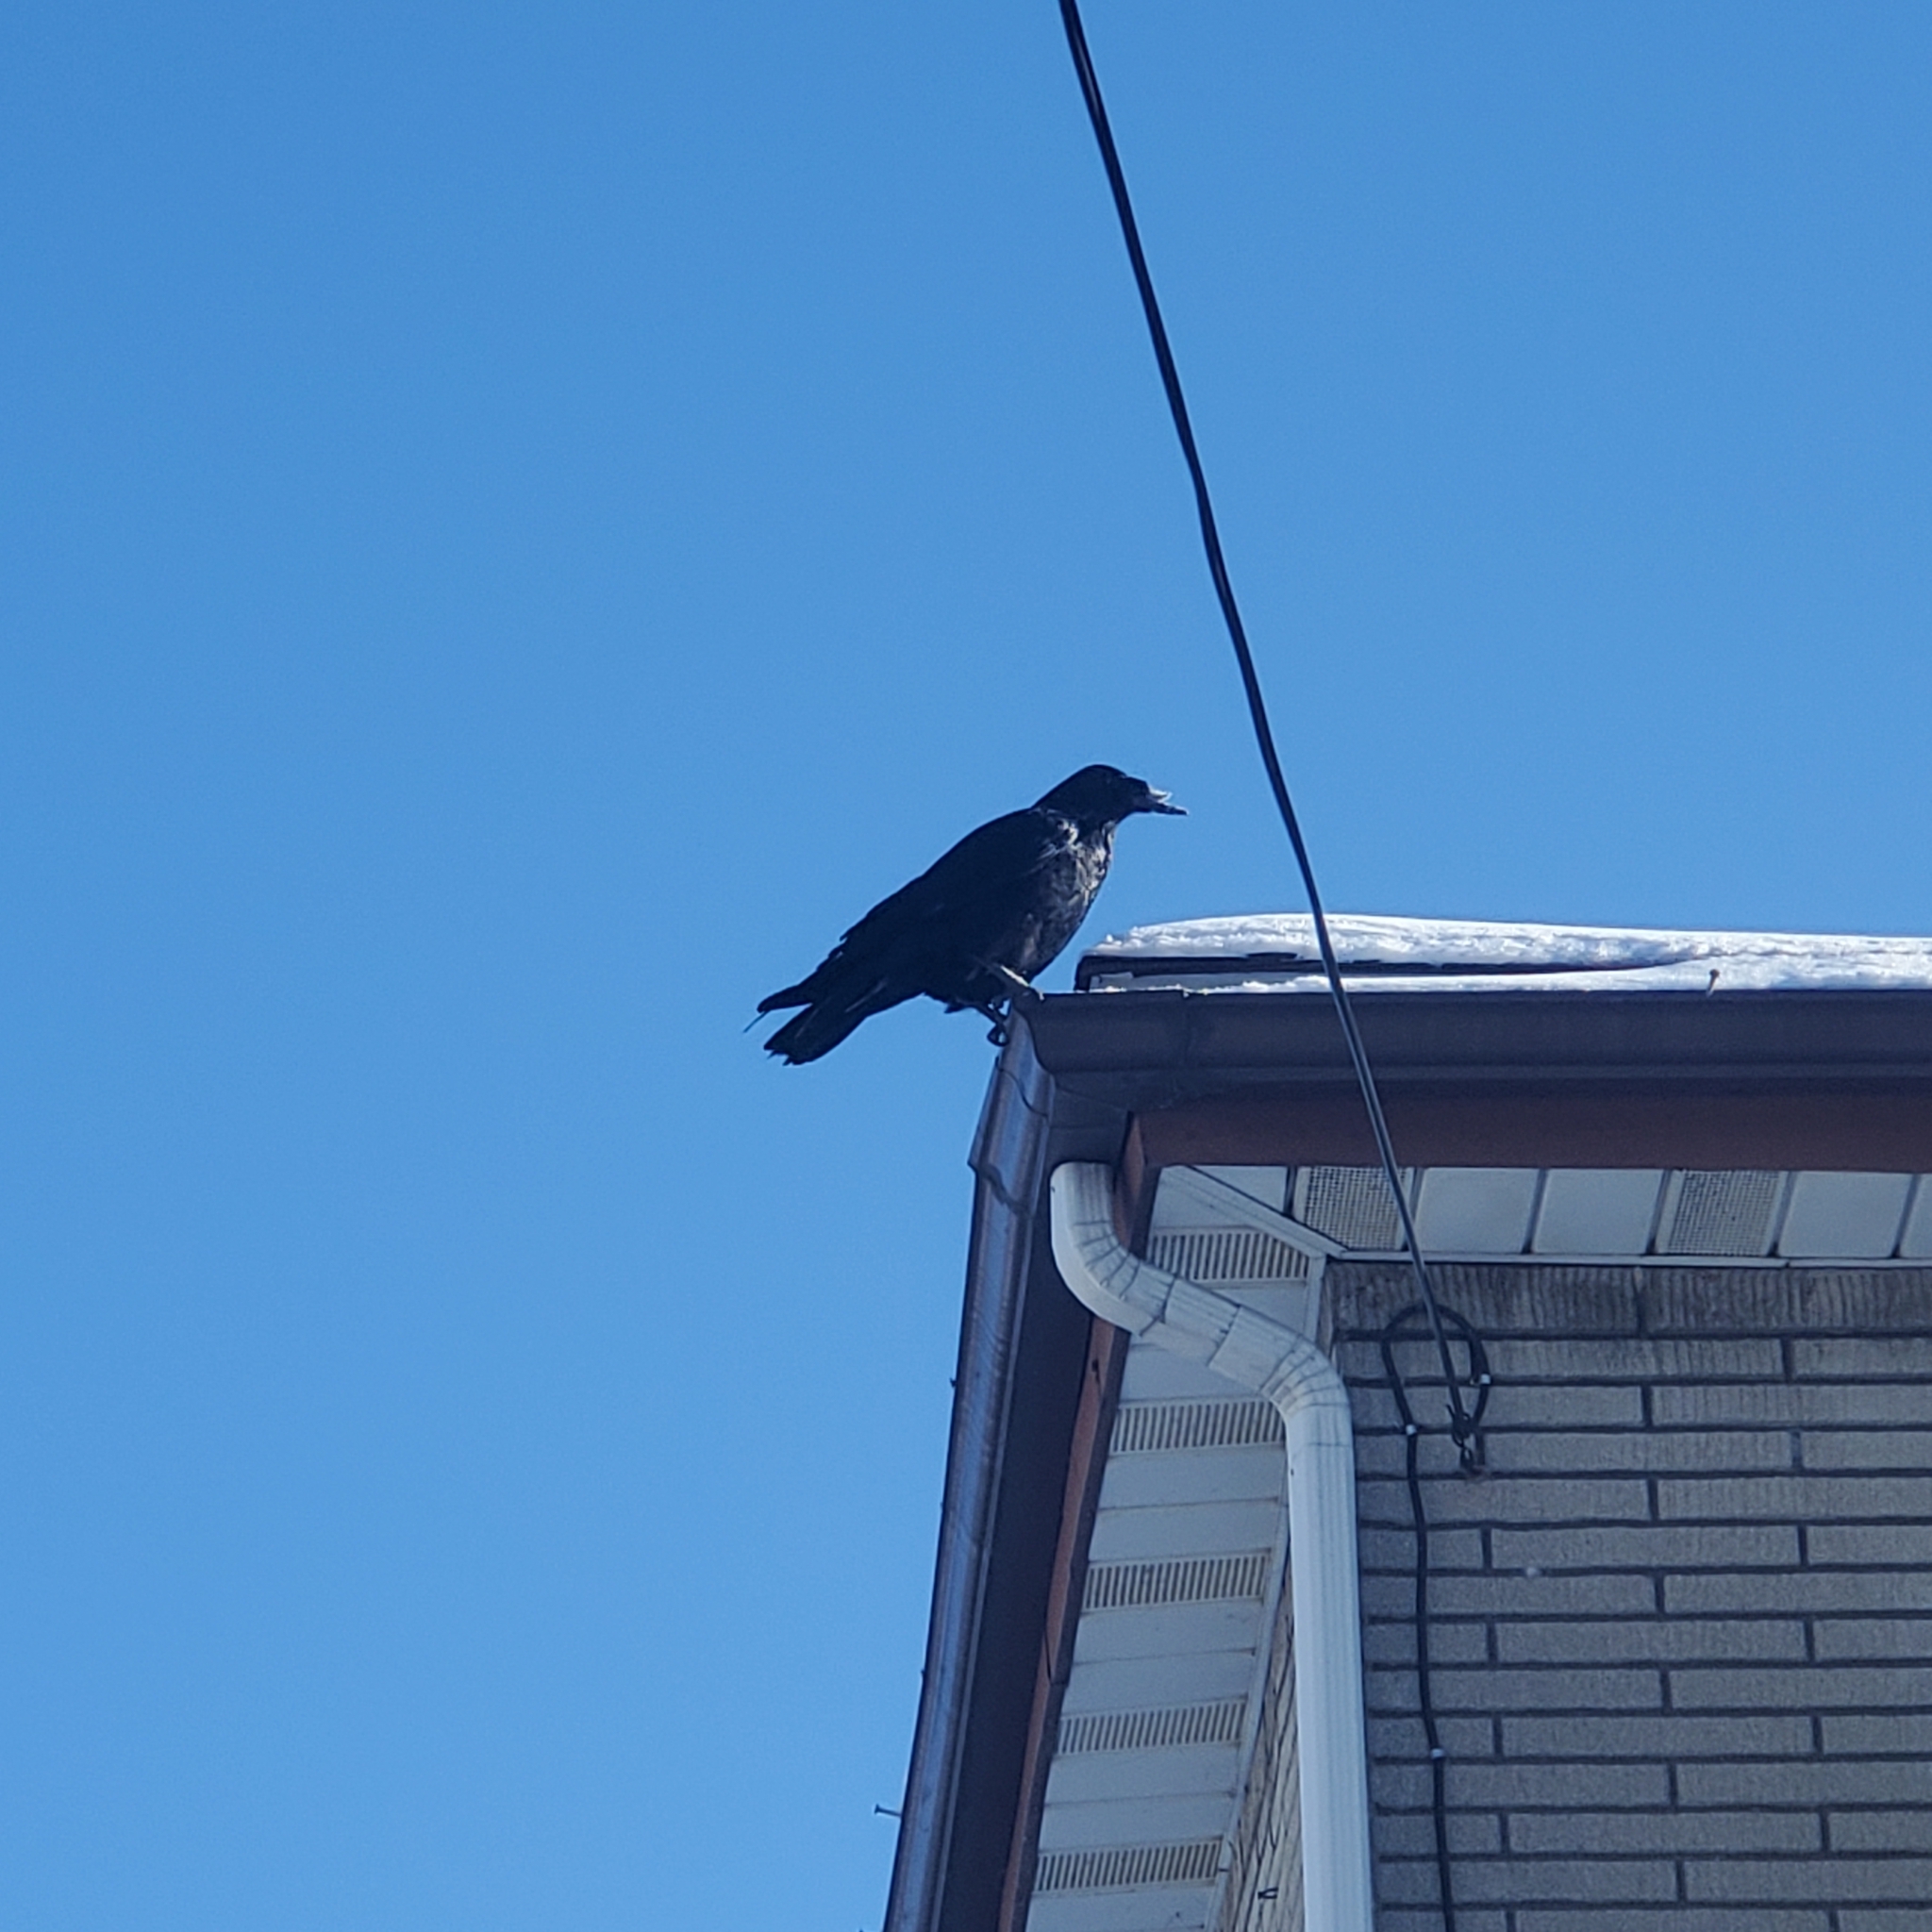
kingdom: Animalia
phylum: Chordata
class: Aves
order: Passeriformes
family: Corvidae
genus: Corvus
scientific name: Corvus brachyrhynchos
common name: American crow
